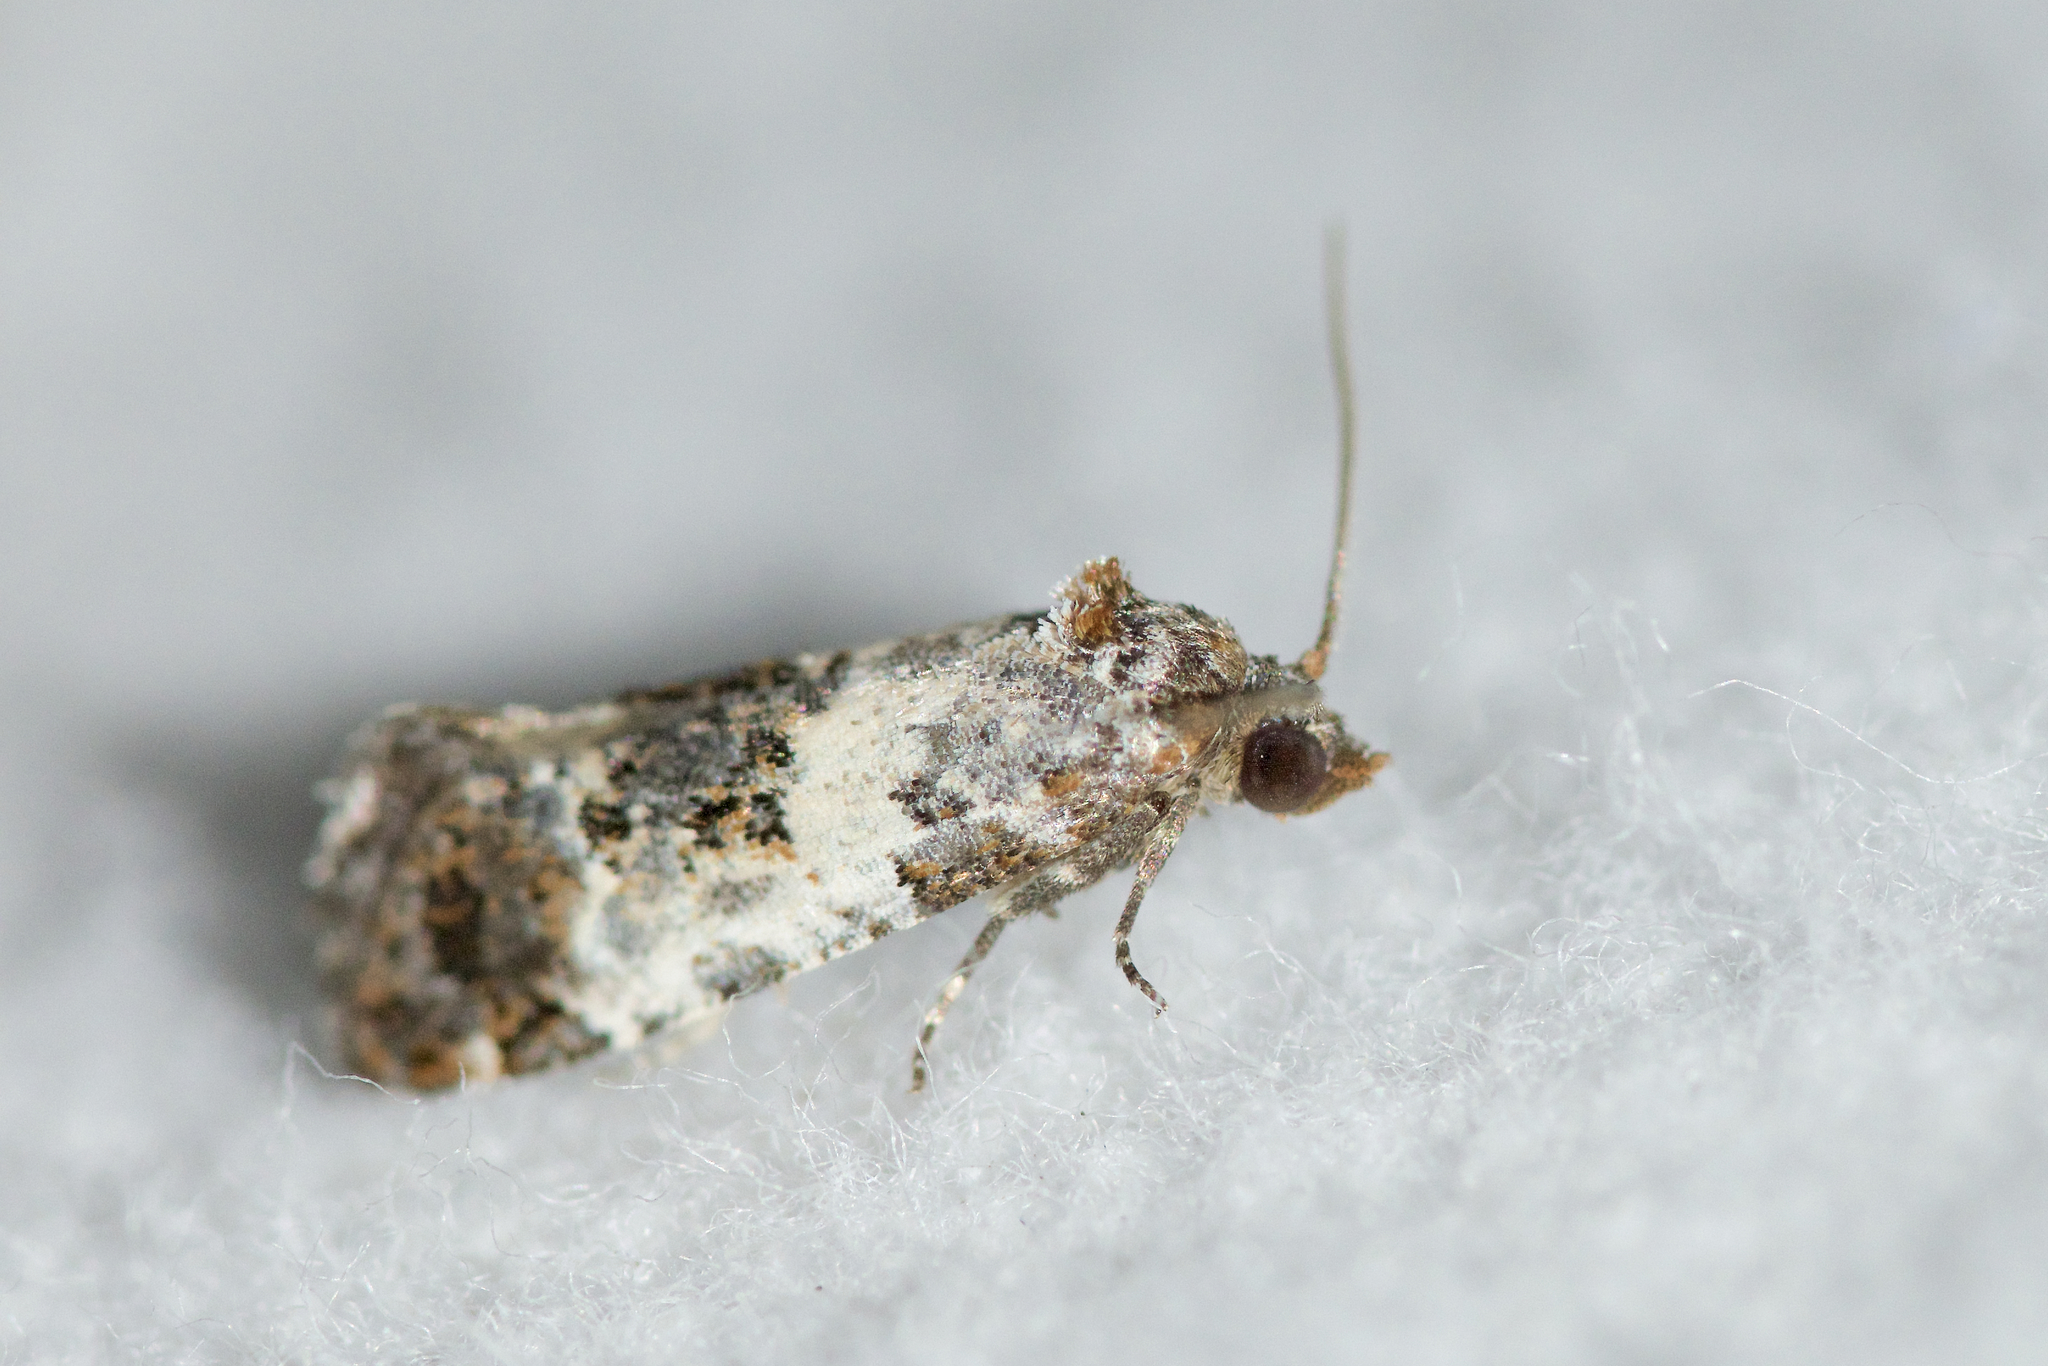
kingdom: Animalia
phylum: Arthropoda
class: Insecta
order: Lepidoptera
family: Tortricidae
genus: Rudenia
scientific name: Rudenia leguminana
